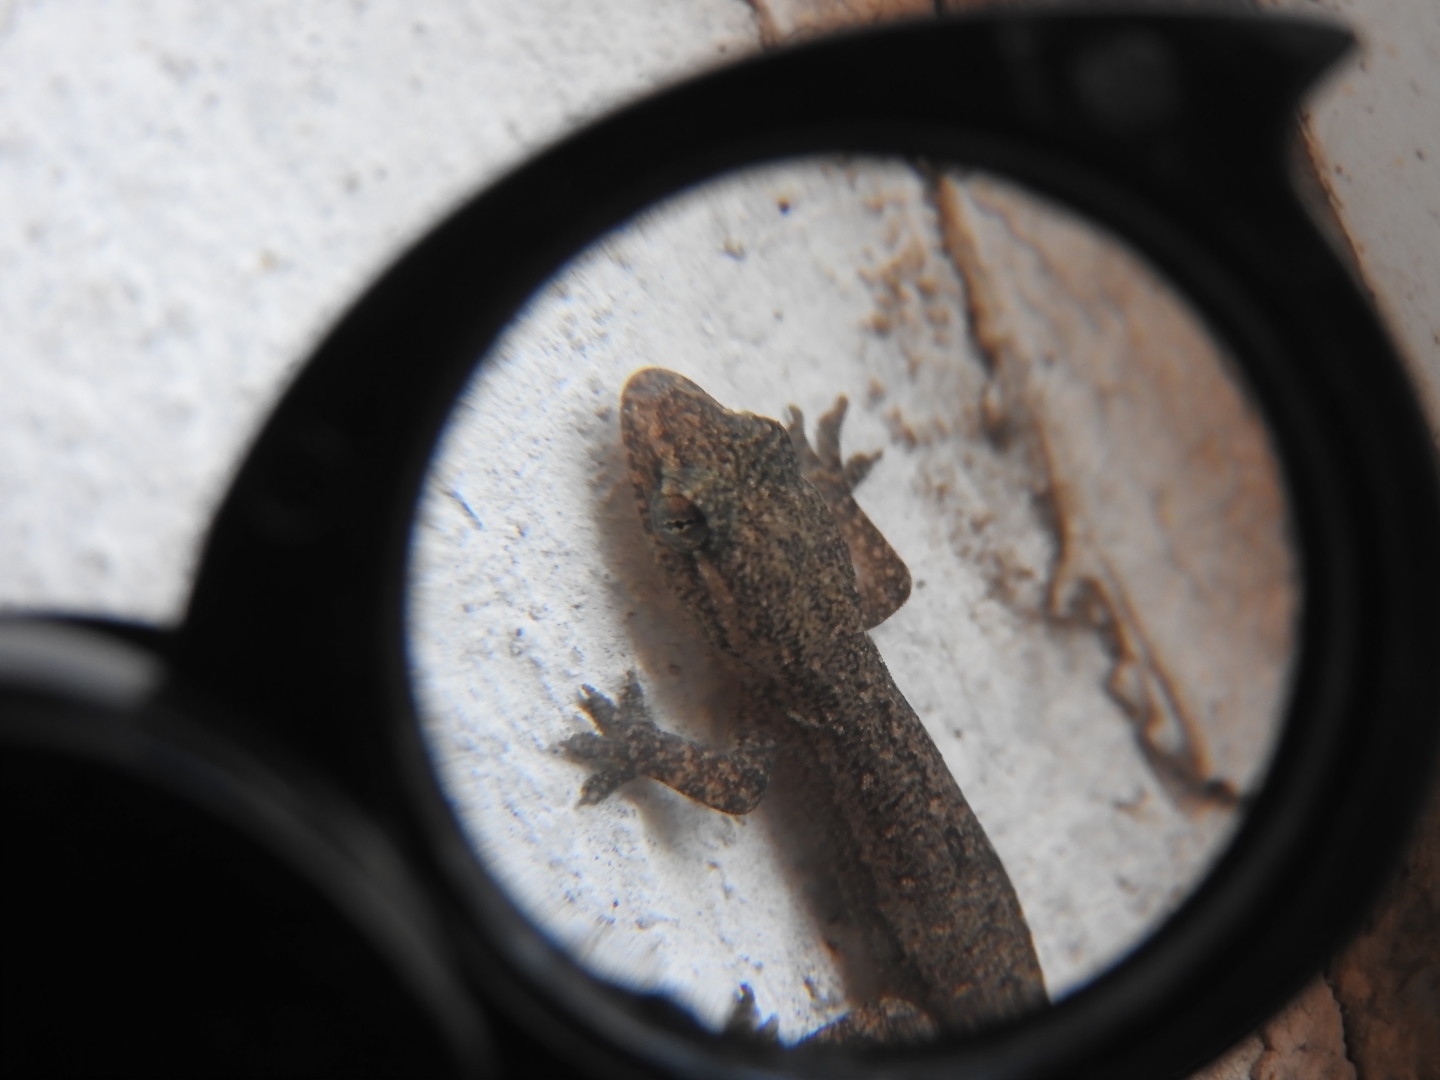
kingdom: Animalia
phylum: Chordata
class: Squamata
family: Gekkonidae
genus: Hemidactylus
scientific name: Hemidactylus frenatus
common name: Common house gecko
